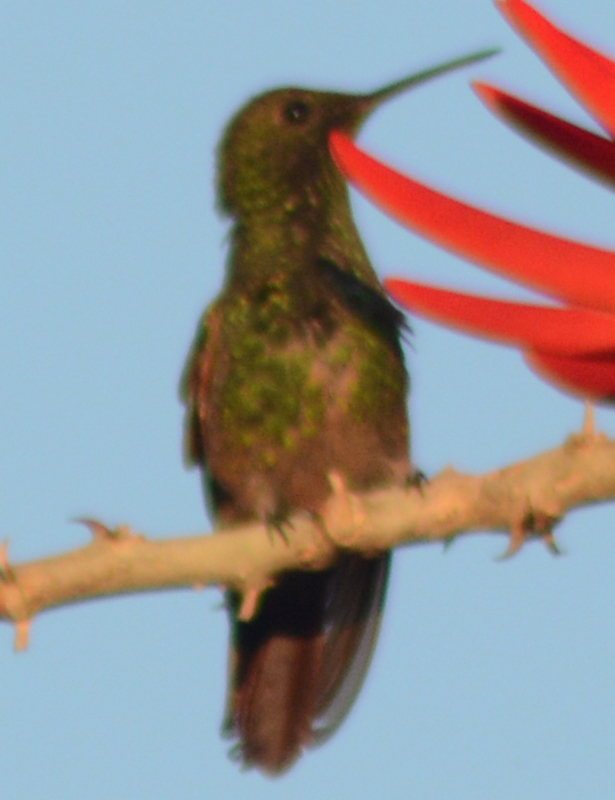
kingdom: Animalia
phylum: Chordata
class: Aves
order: Apodiformes
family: Trochilidae
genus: Saucerottia
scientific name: Saucerottia beryllina
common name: Berylline hummingbird
